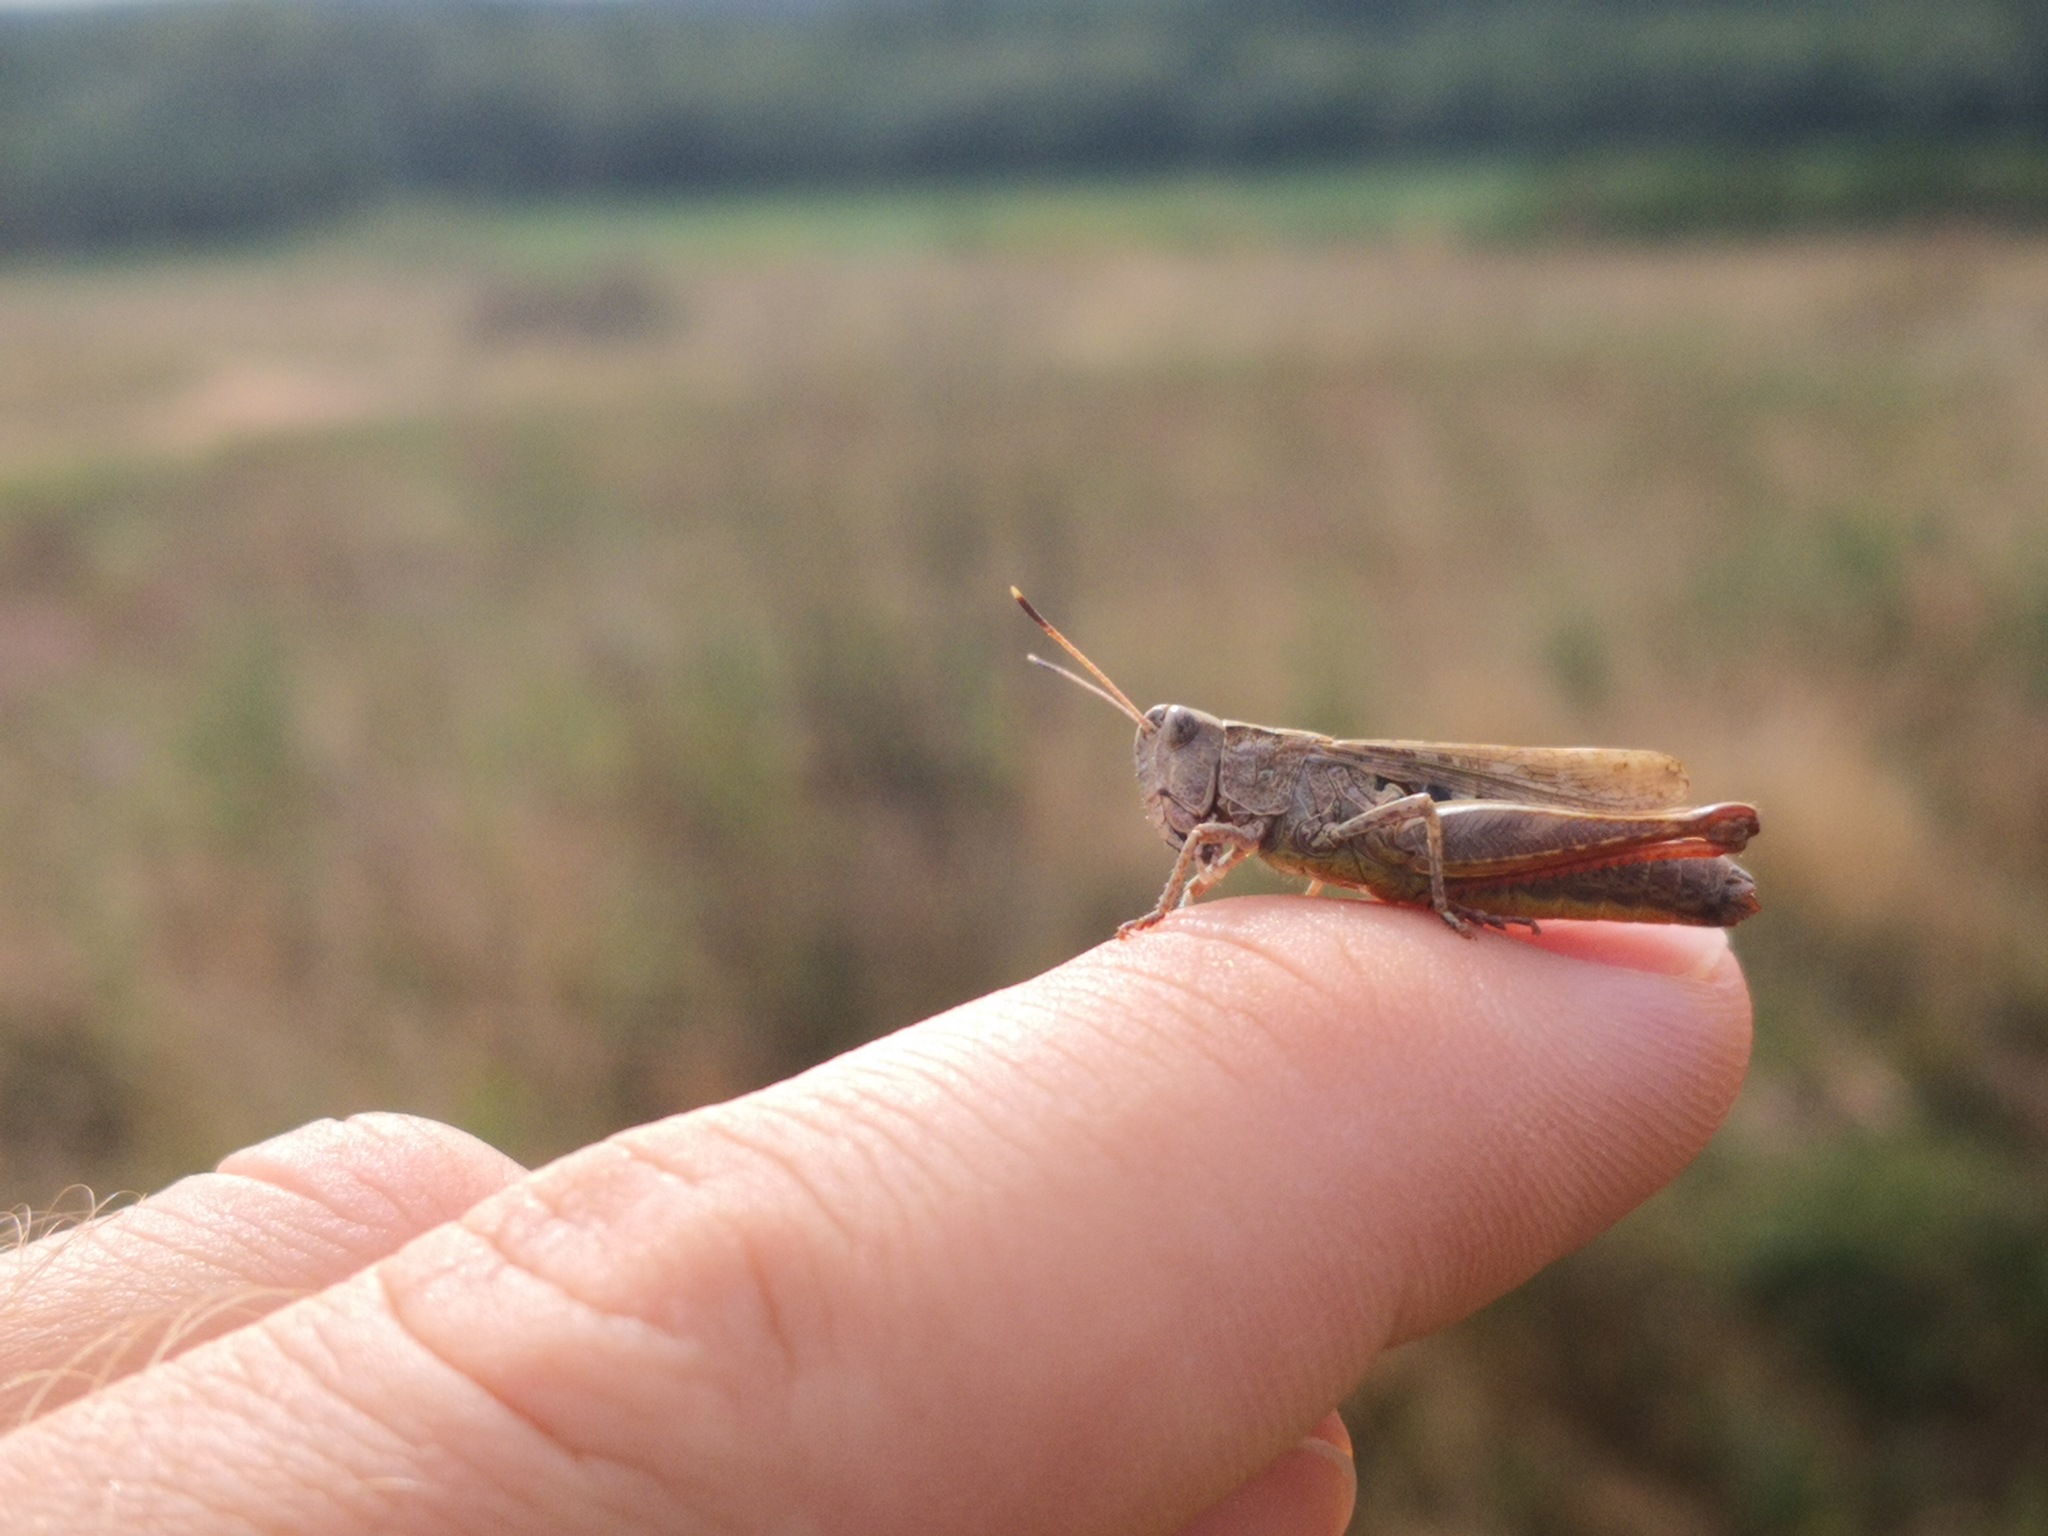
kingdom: Animalia
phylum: Arthropoda
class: Insecta
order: Orthoptera
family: Acrididae
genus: Gomphocerippus
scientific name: Gomphocerippus rufus
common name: Rufous grasshopper
